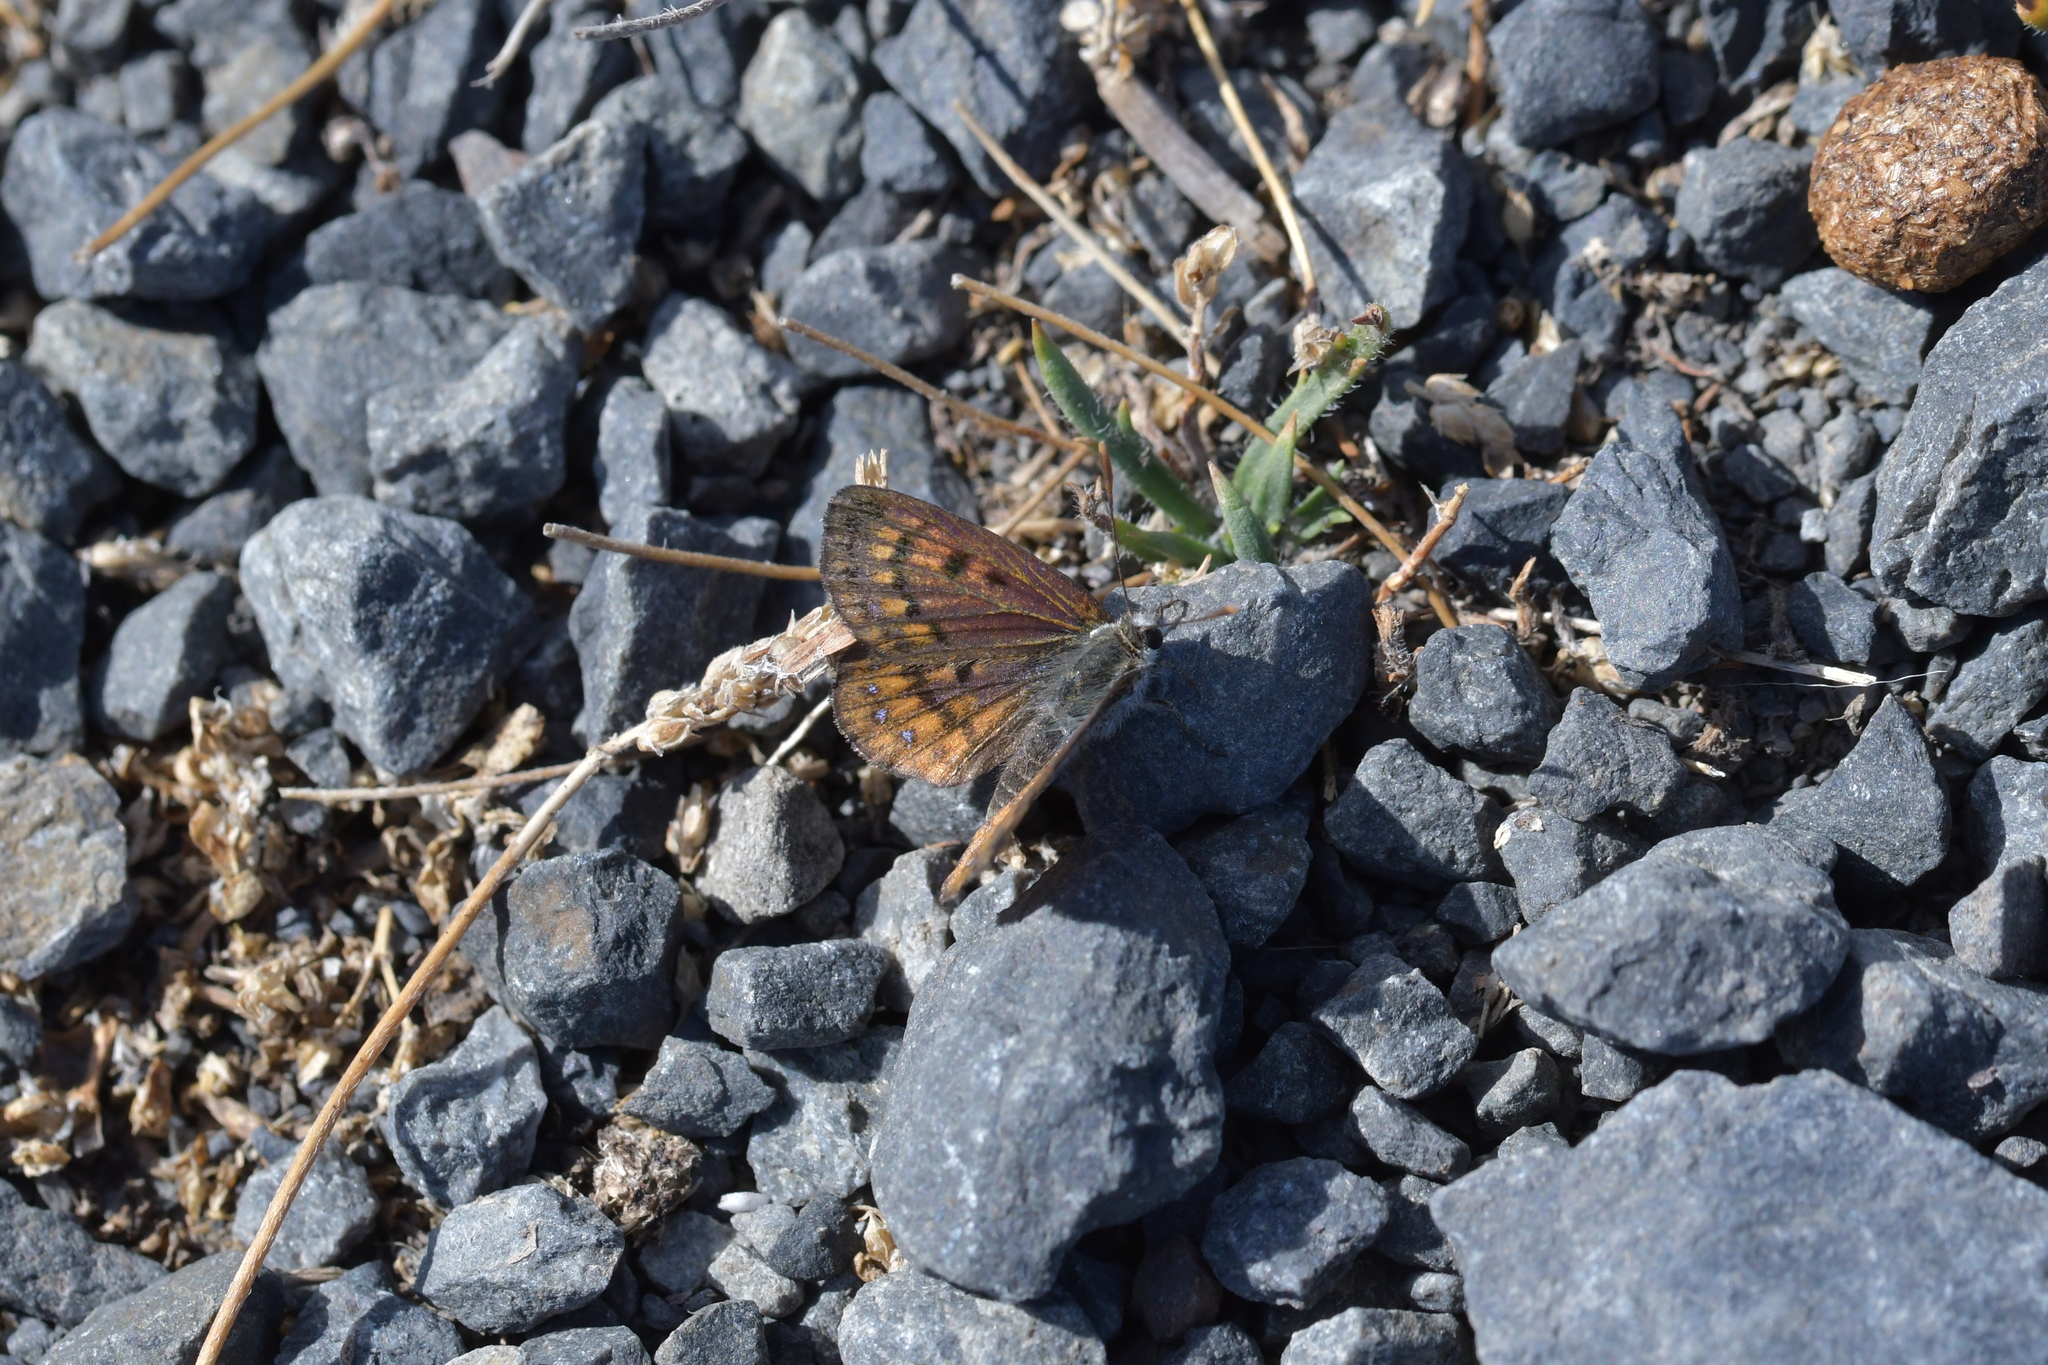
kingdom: Animalia
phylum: Arthropoda
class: Insecta
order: Lepidoptera
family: Lycaenidae
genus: Lycaena
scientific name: Lycaena boldenarum
